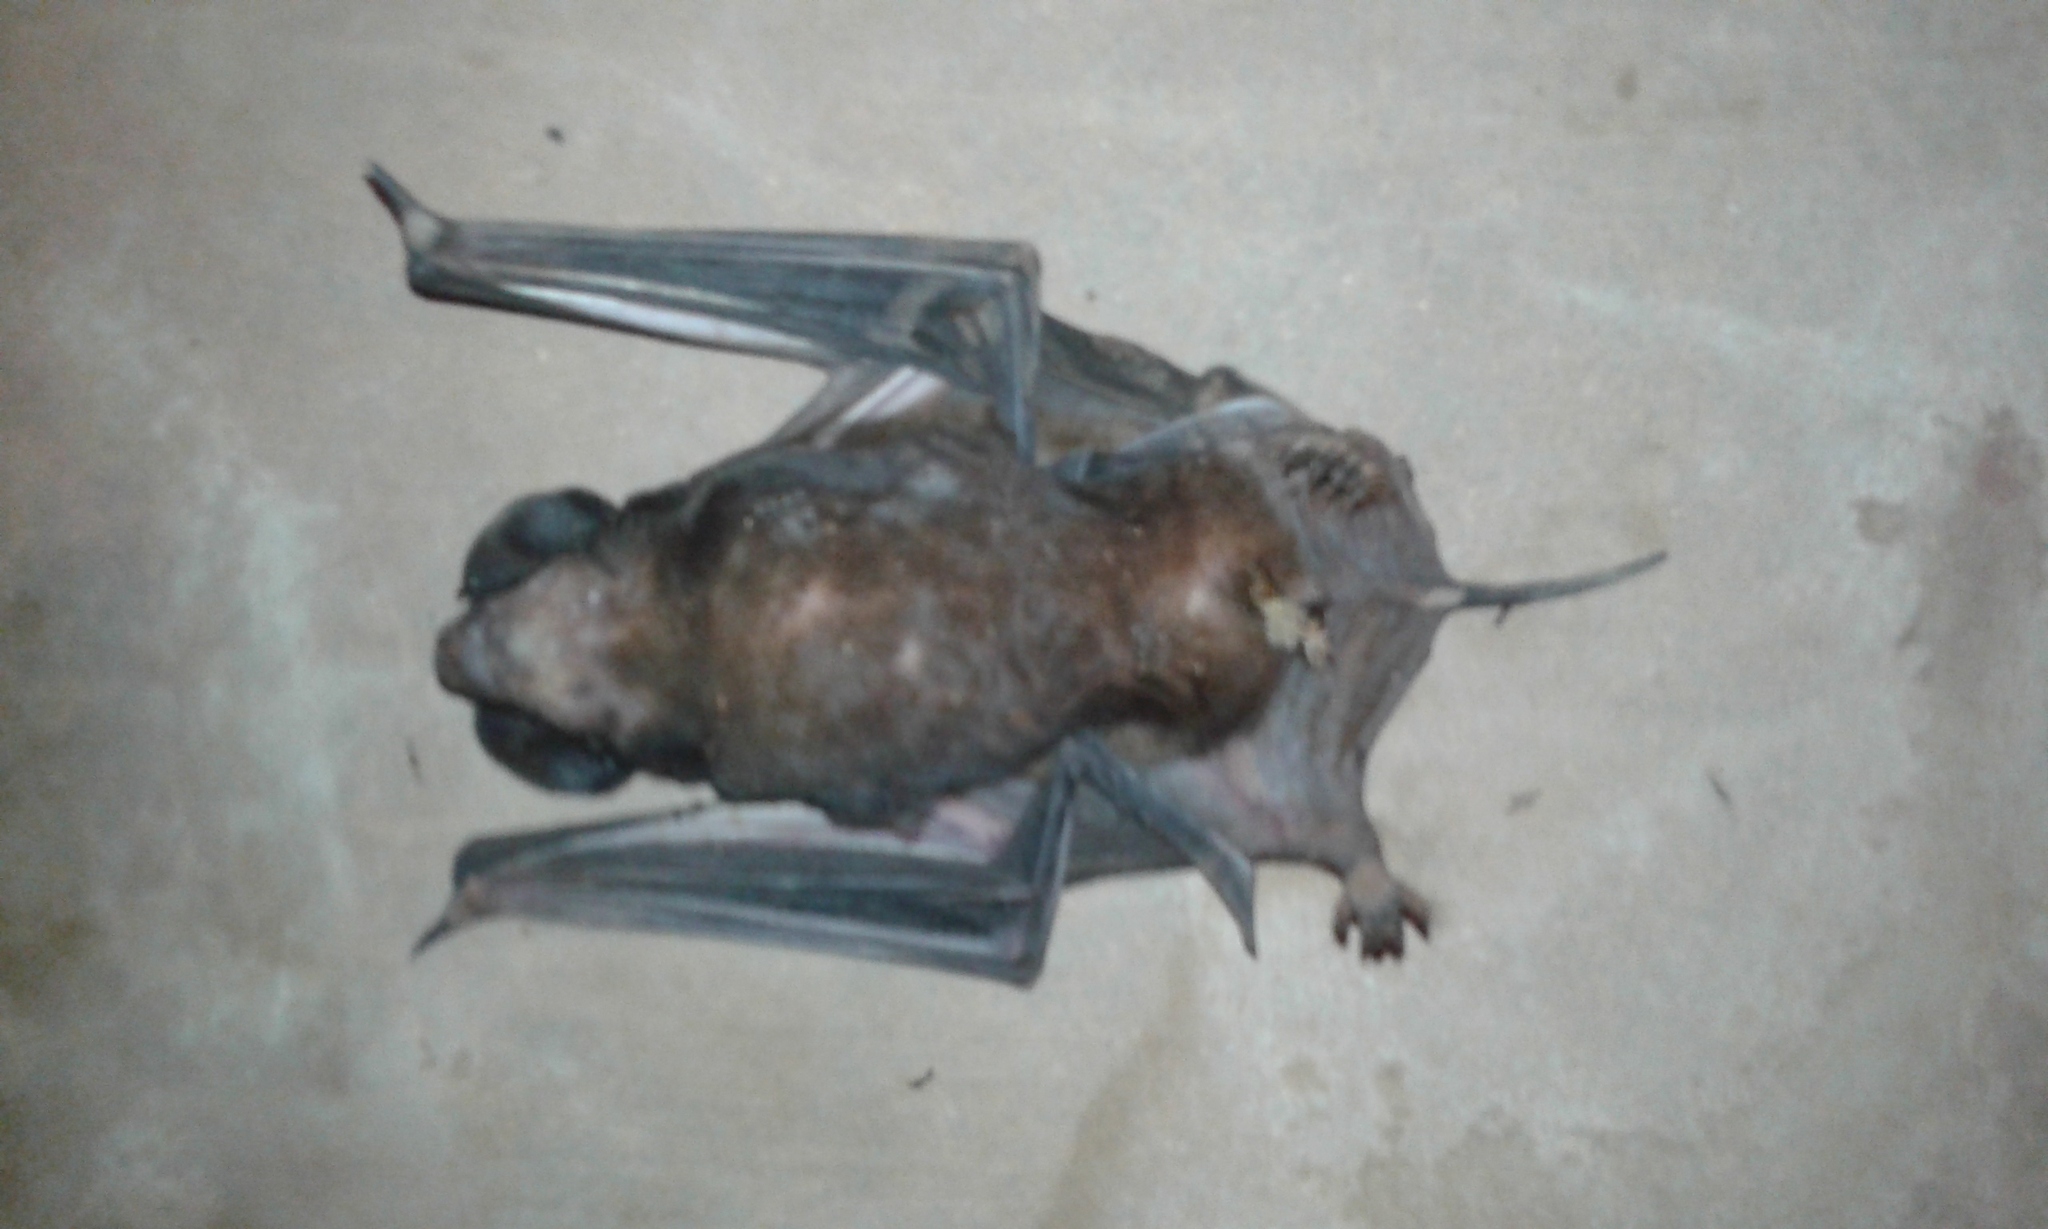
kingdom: Animalia
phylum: Chordata
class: Mammalia
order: Chiroptera
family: Molossidae
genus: Eumops
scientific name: Eumops perotis
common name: Greater bonneted bat
